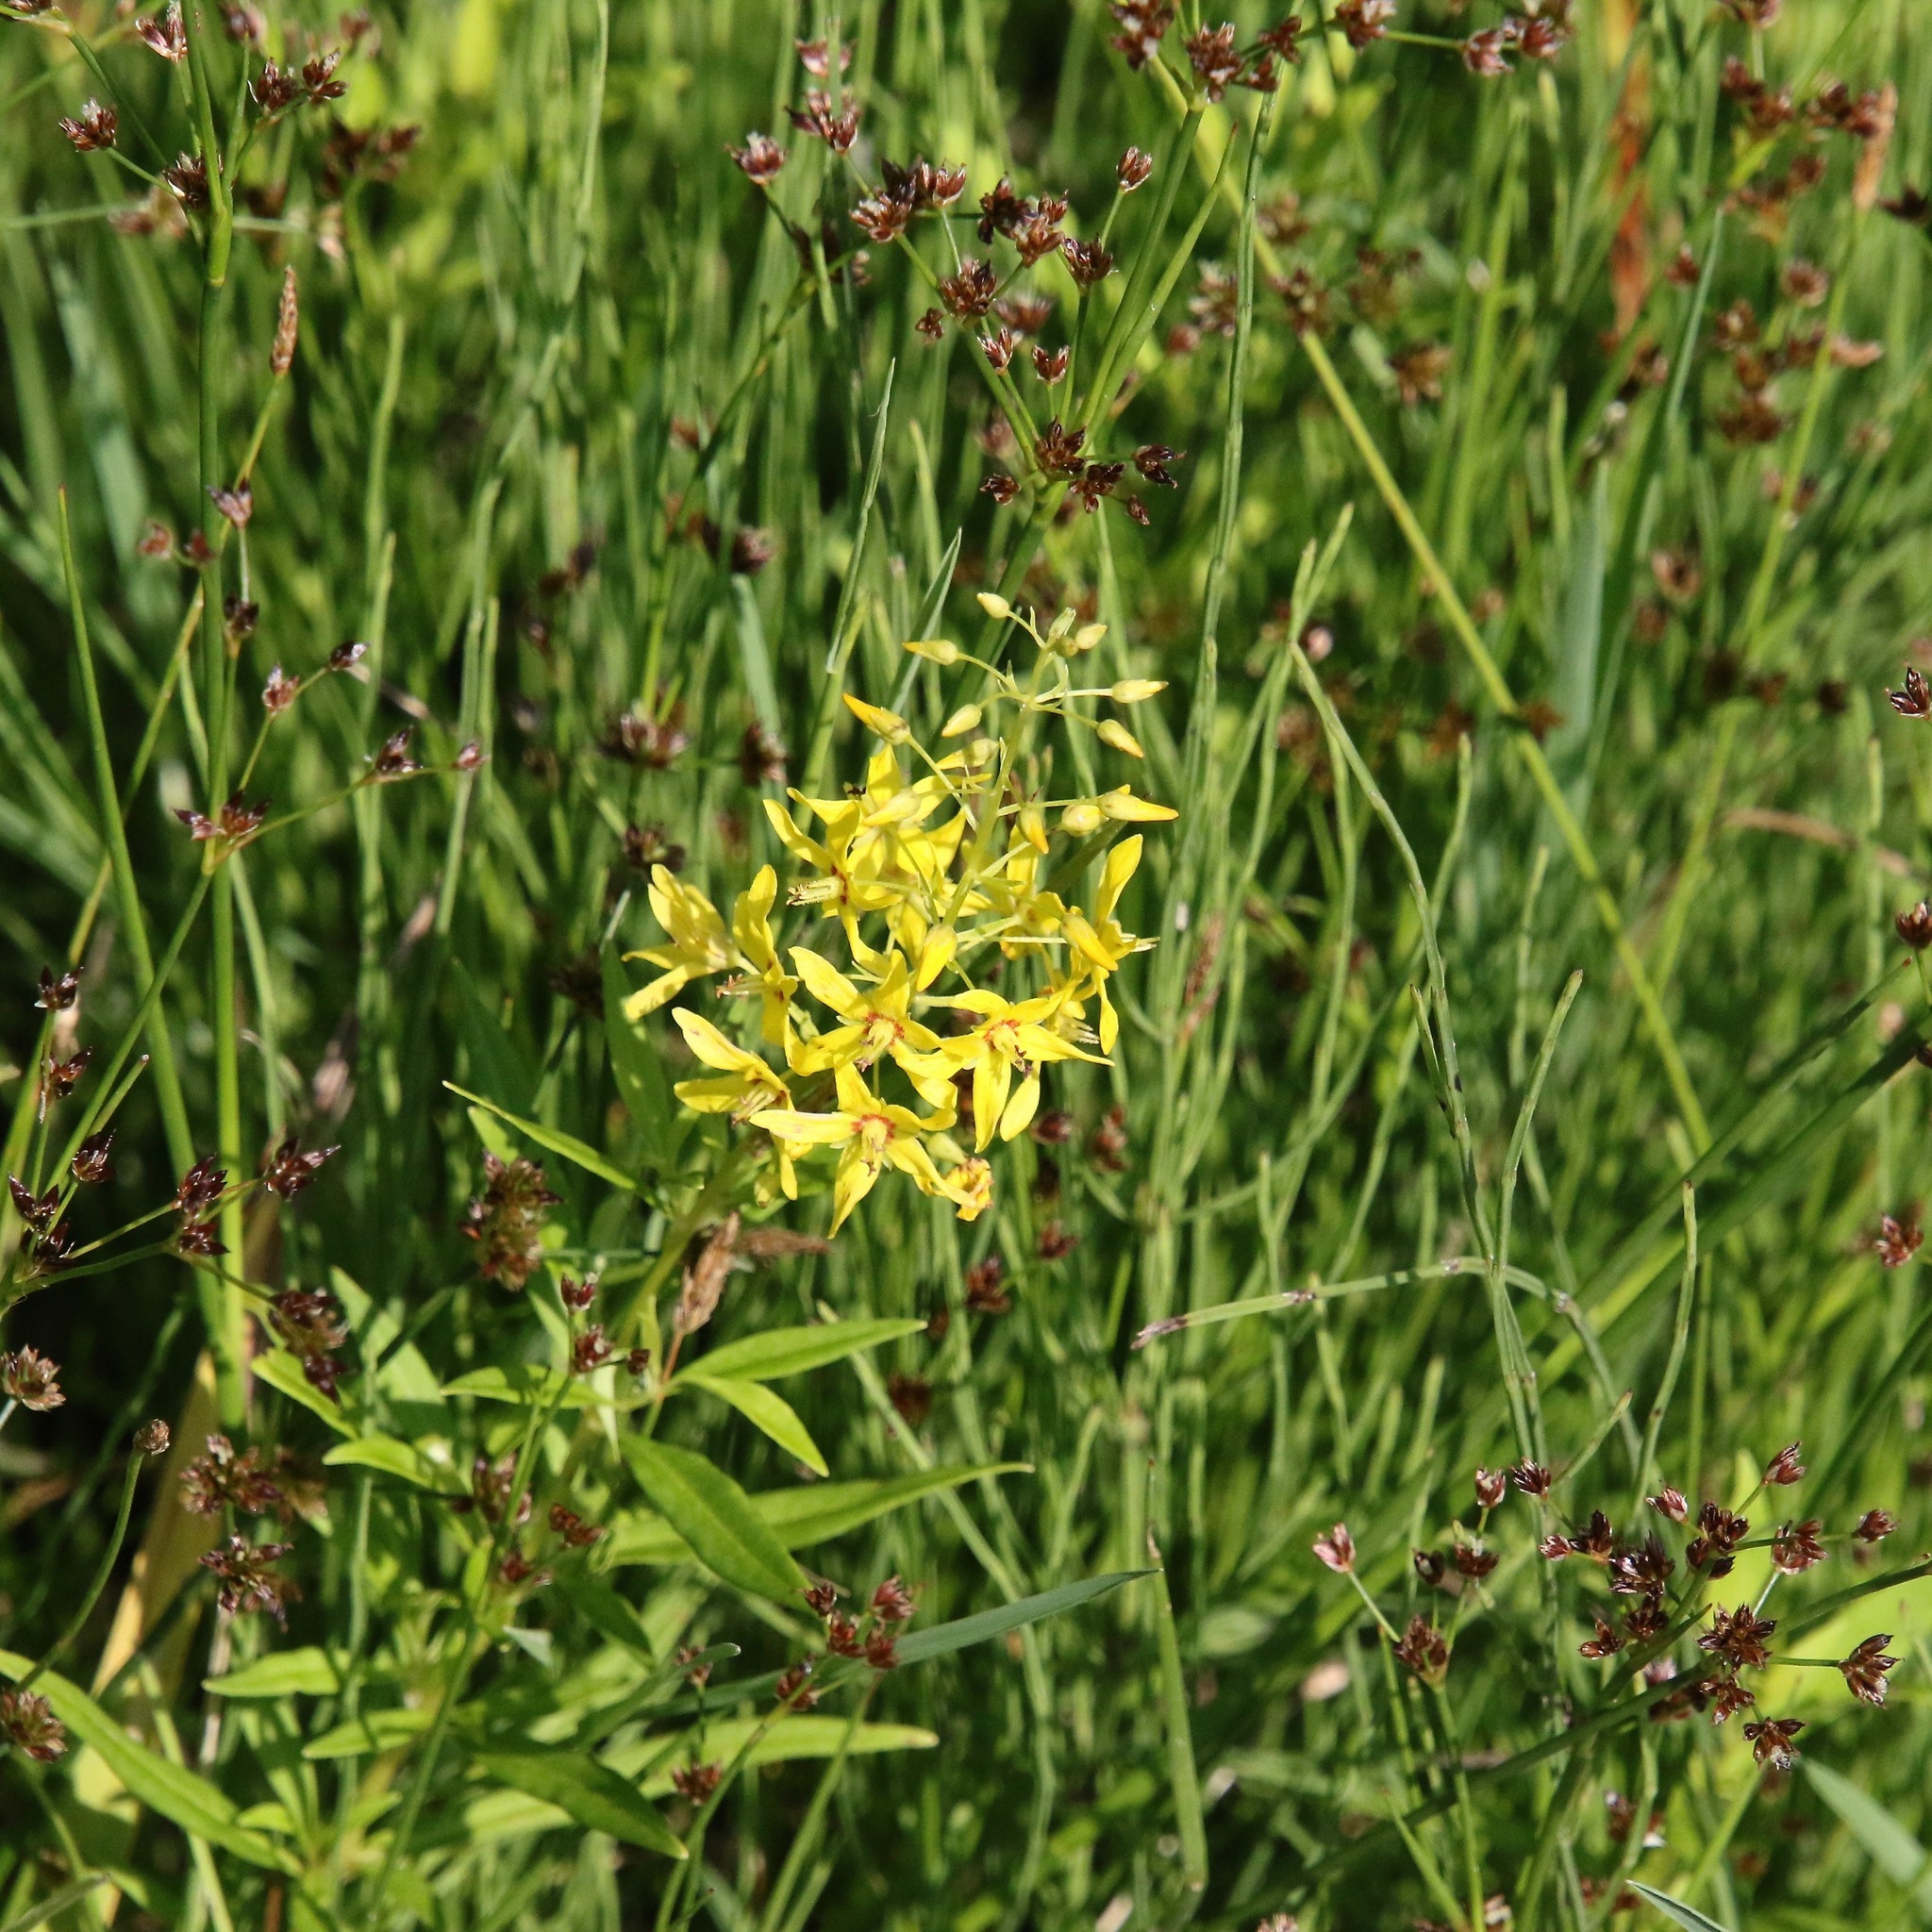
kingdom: Plantae
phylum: Tracheophyta
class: Magnoliopsida
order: Ericales
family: Primulaceae
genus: Lysimachia
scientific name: Lysimachia terrestris
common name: Lake loosestrife
